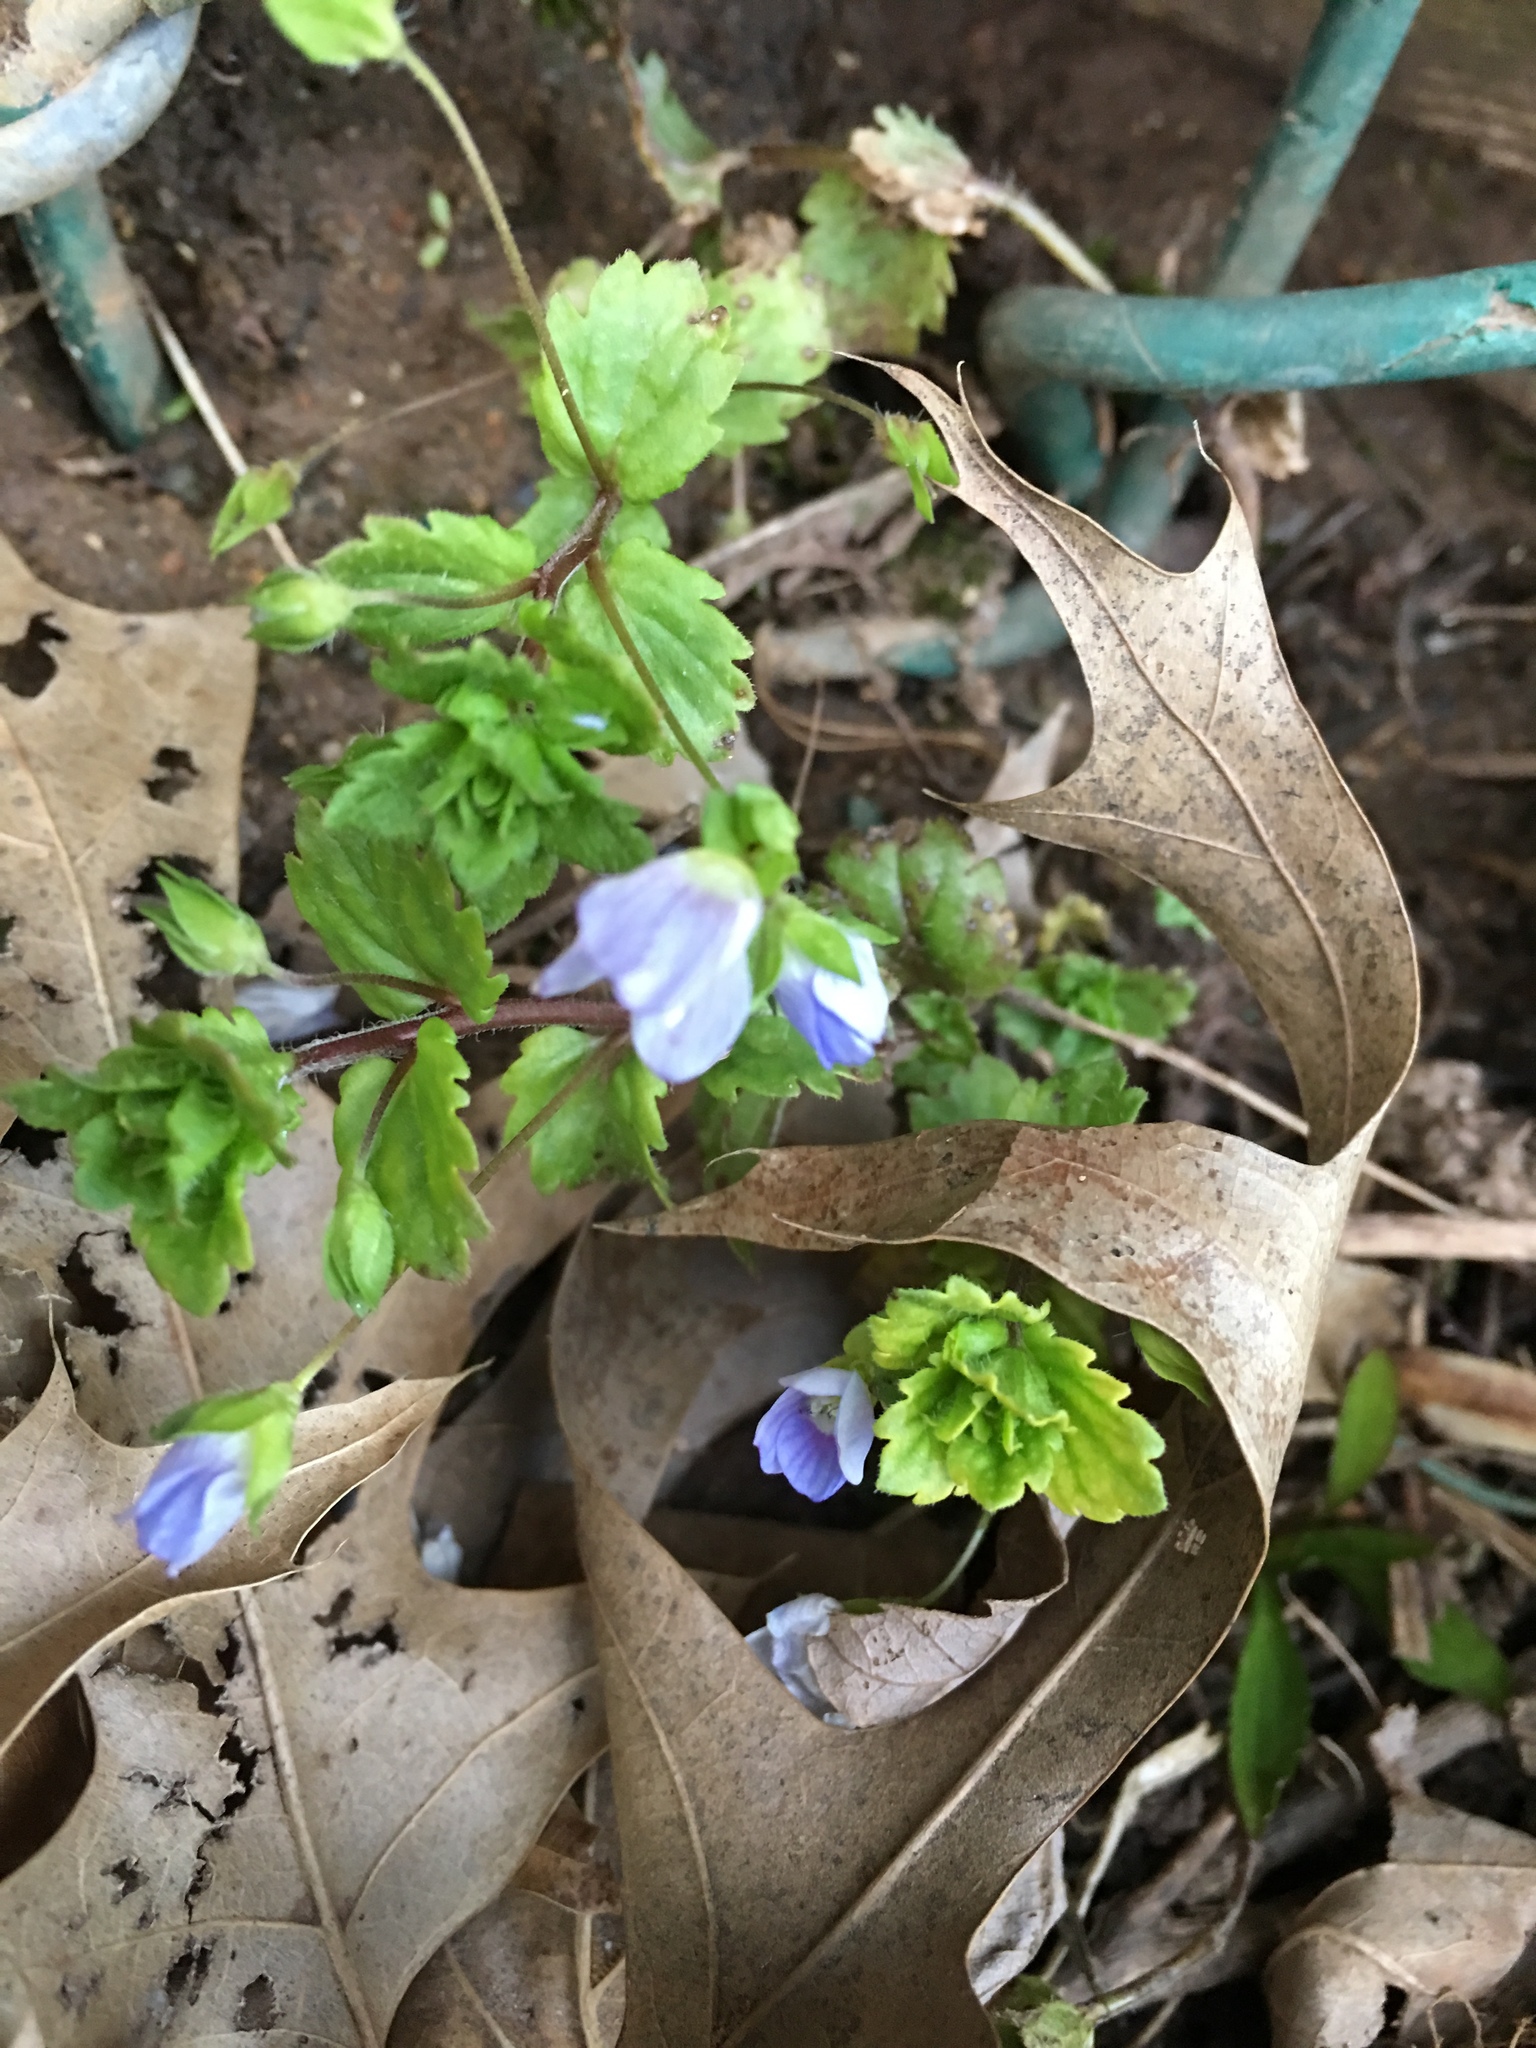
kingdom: Plantae
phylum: Tracheophyta
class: Magnoliopsida
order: Lamiales
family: Plantaginaceae
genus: Veronica
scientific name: Veronica persica
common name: Common field-speedwell
